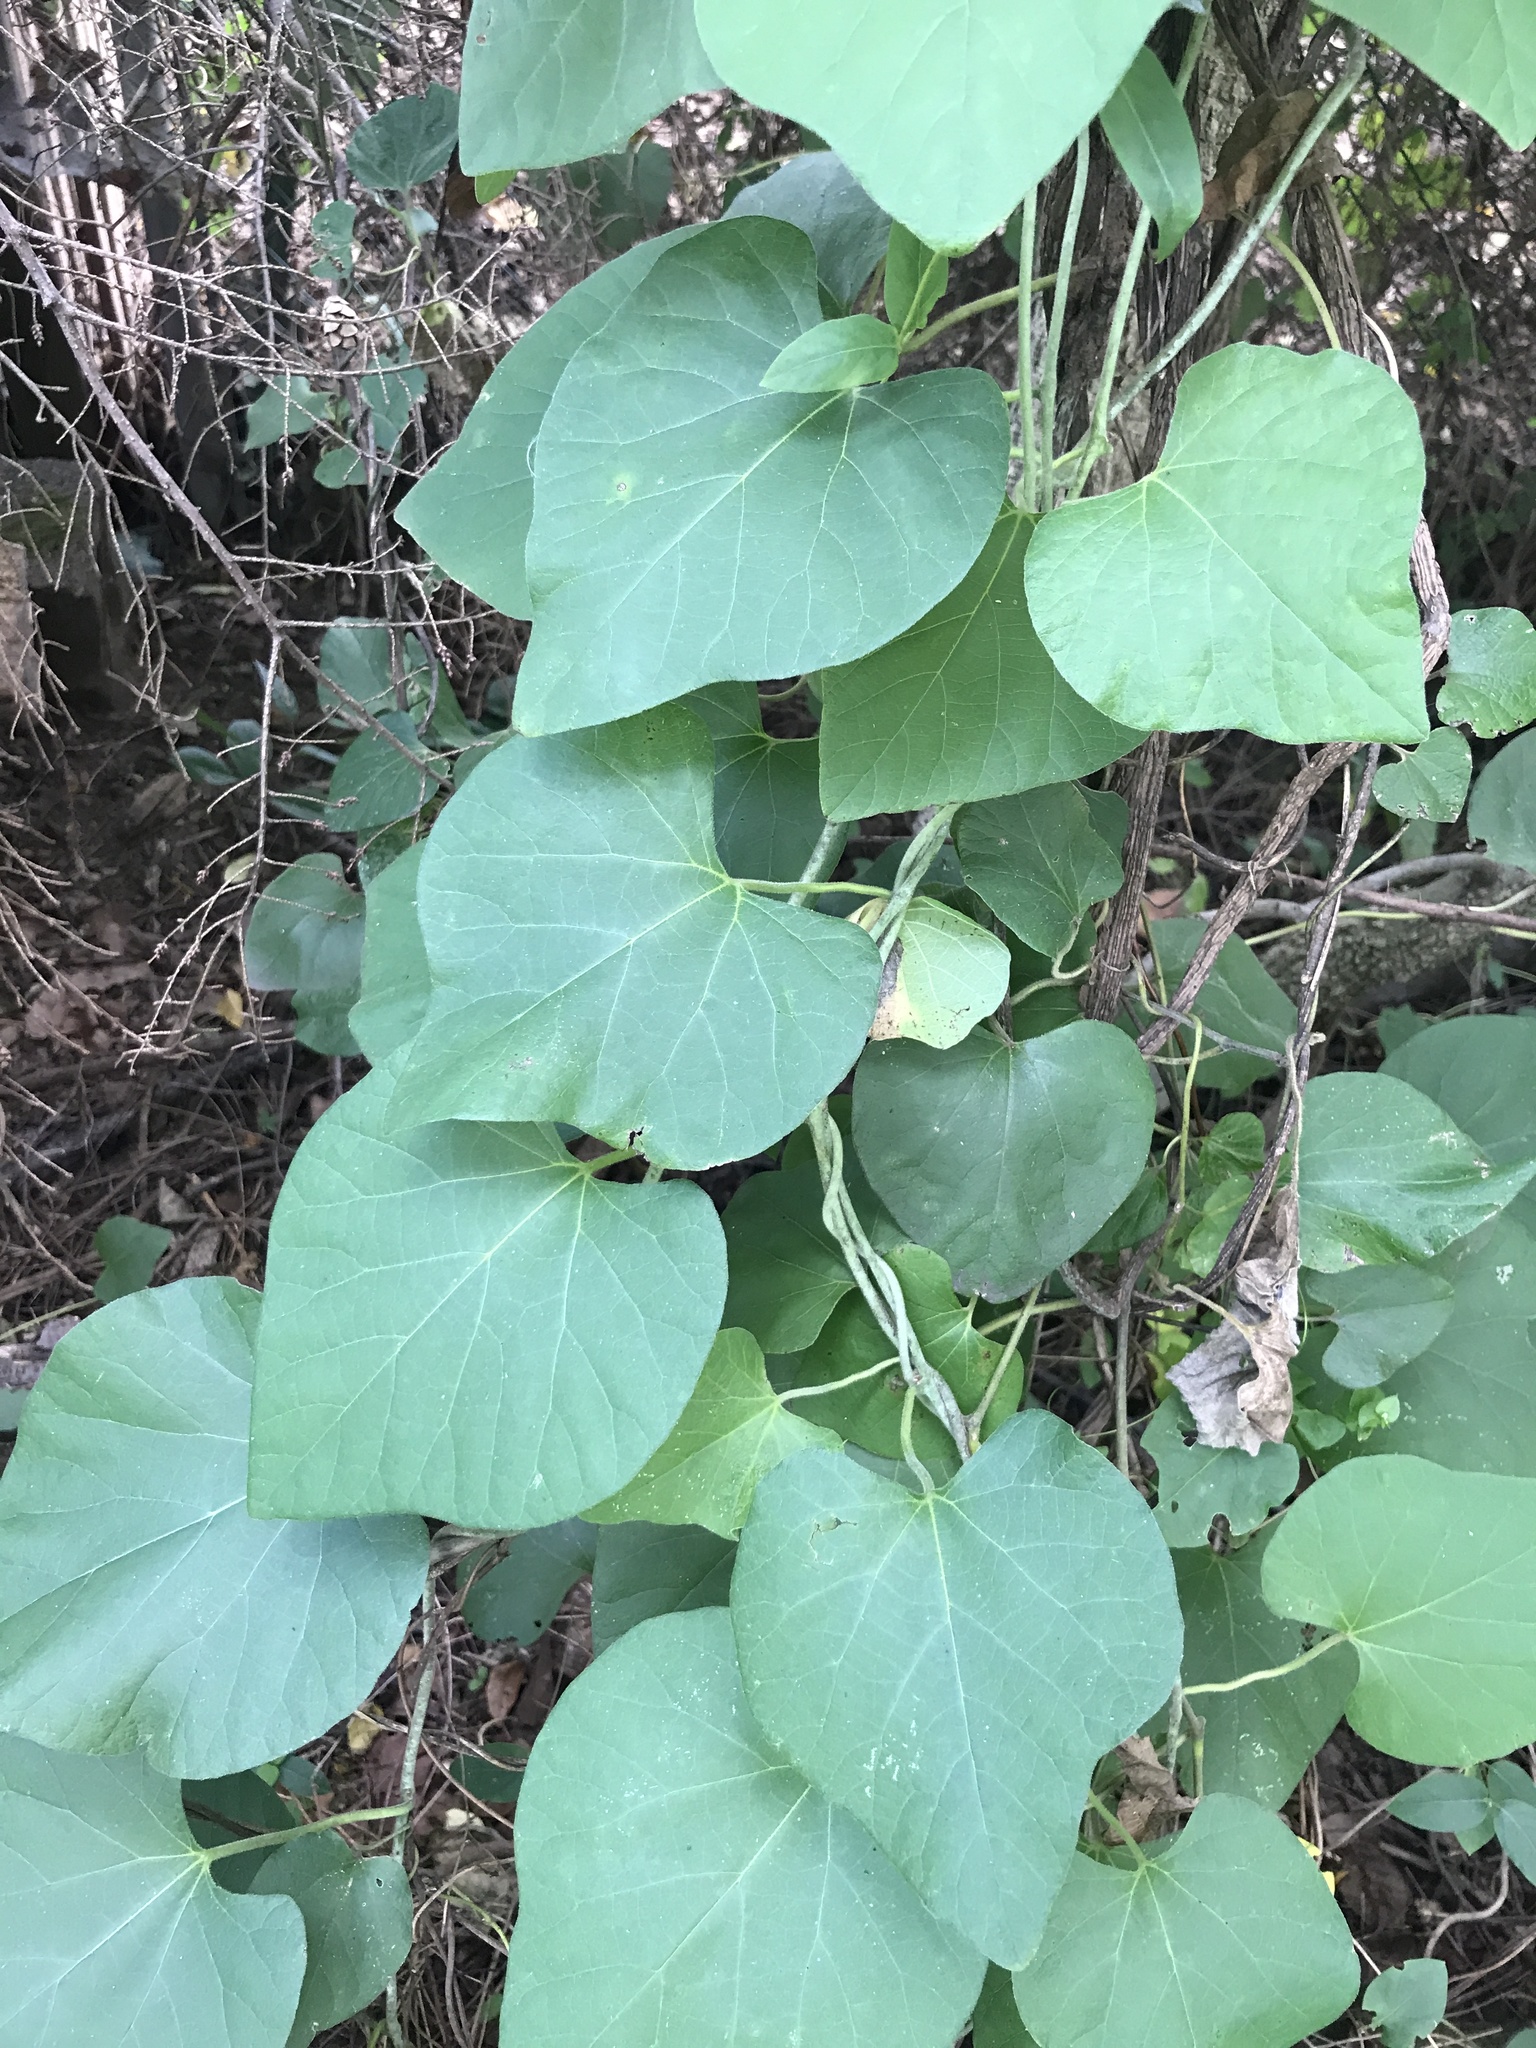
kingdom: Plantae
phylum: Tracheophyta
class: Magnoliopsida
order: Piperales
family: Aristolochiaceae
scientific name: Aristolochiaceae
